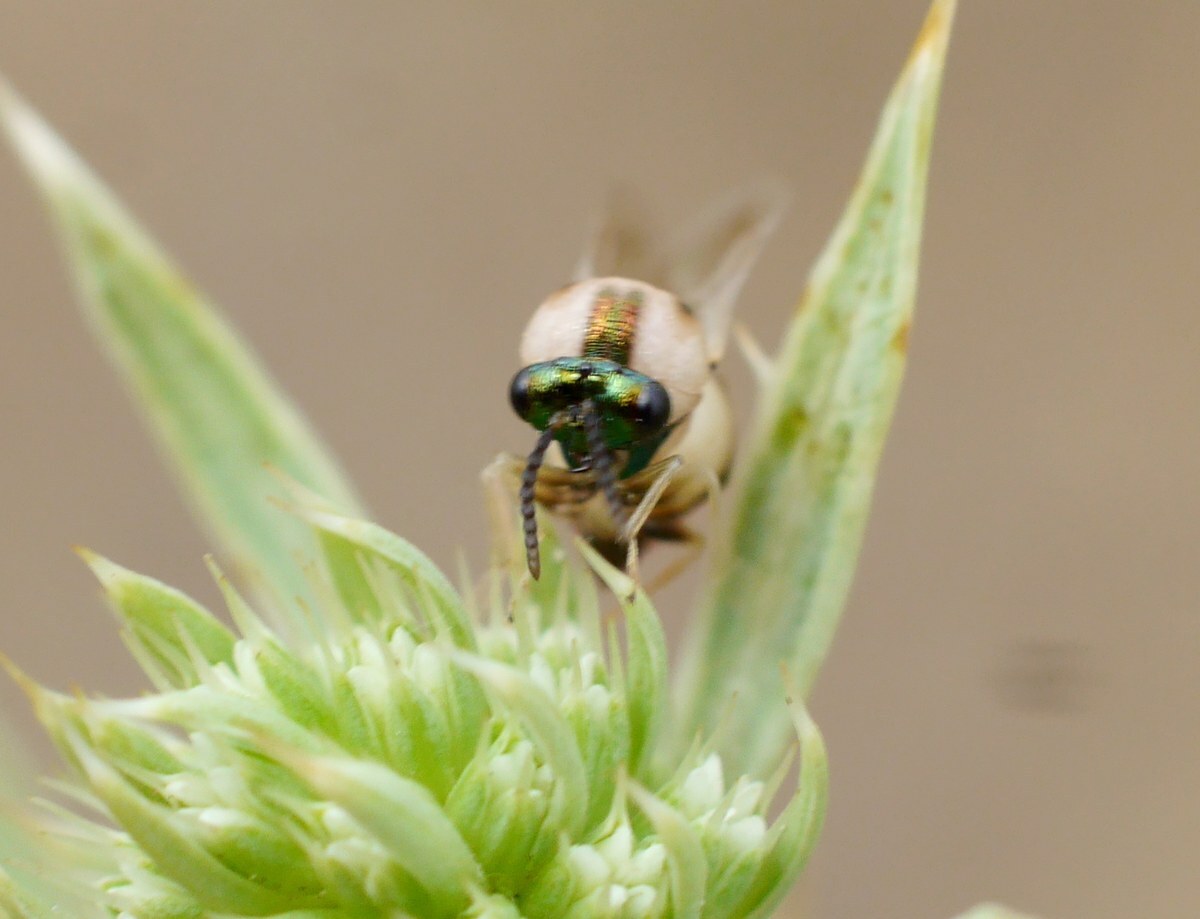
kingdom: Animalia
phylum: Arthropoda
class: Insecta
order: Hymenoptera
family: Eucharitidae
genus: Eucharis
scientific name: Eucharis shestakovi
